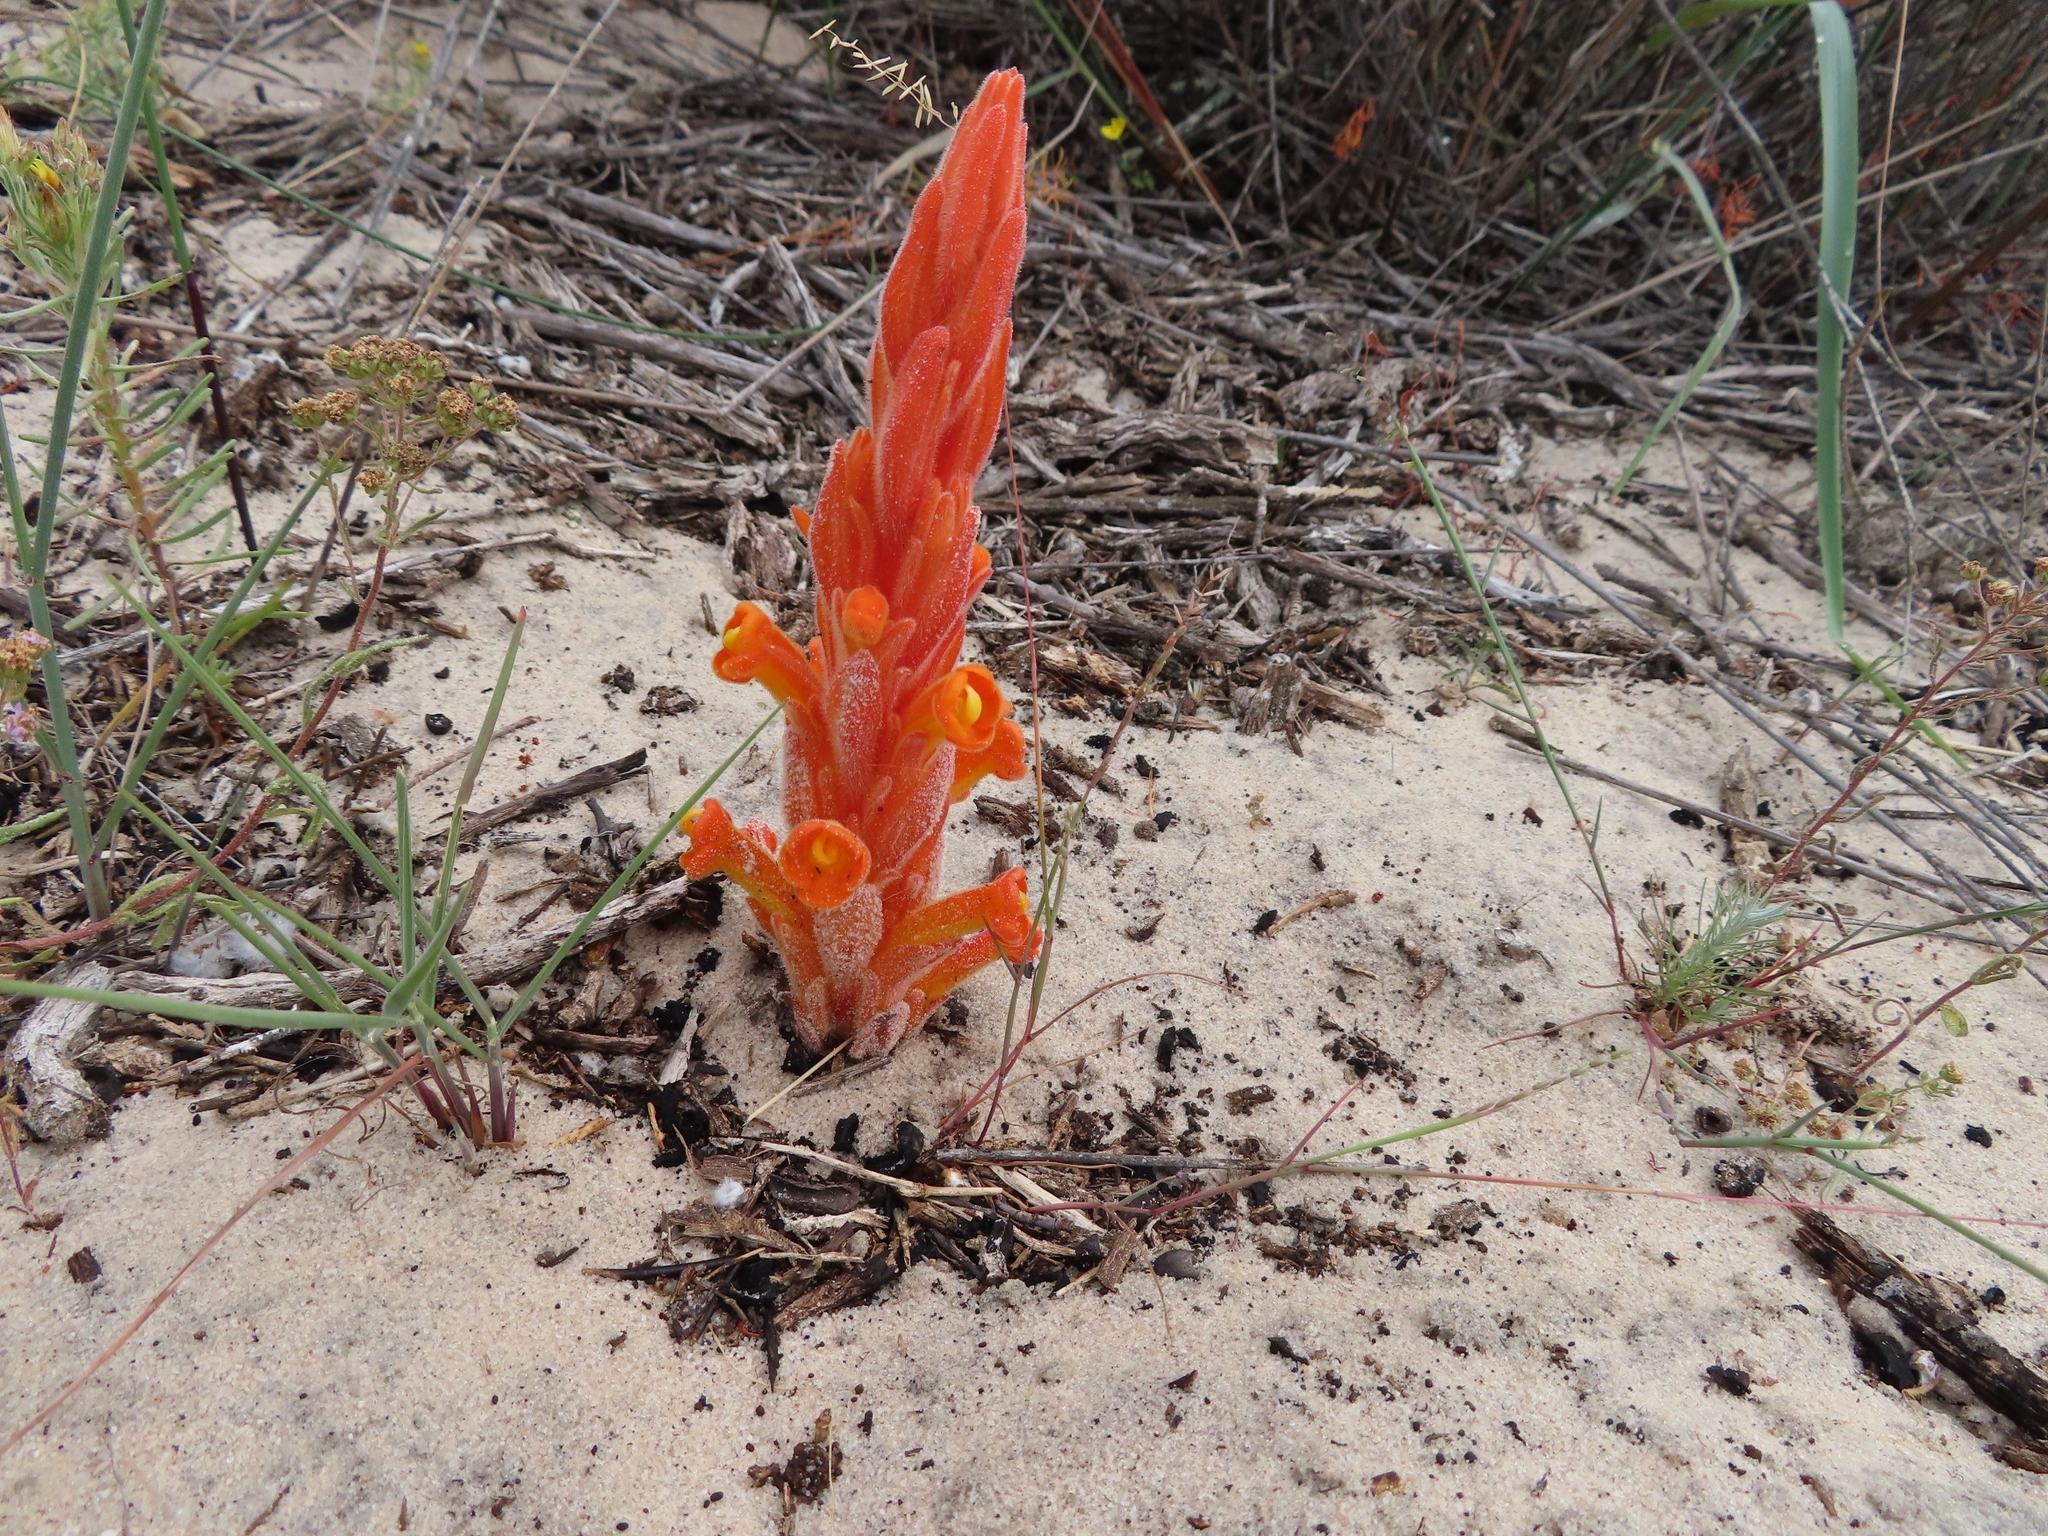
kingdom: Plantae
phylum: Tracheophyta
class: Magnoliopsida
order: Lamiales
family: Orobanchaceae
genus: Harveya
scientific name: Harveya squamosa
